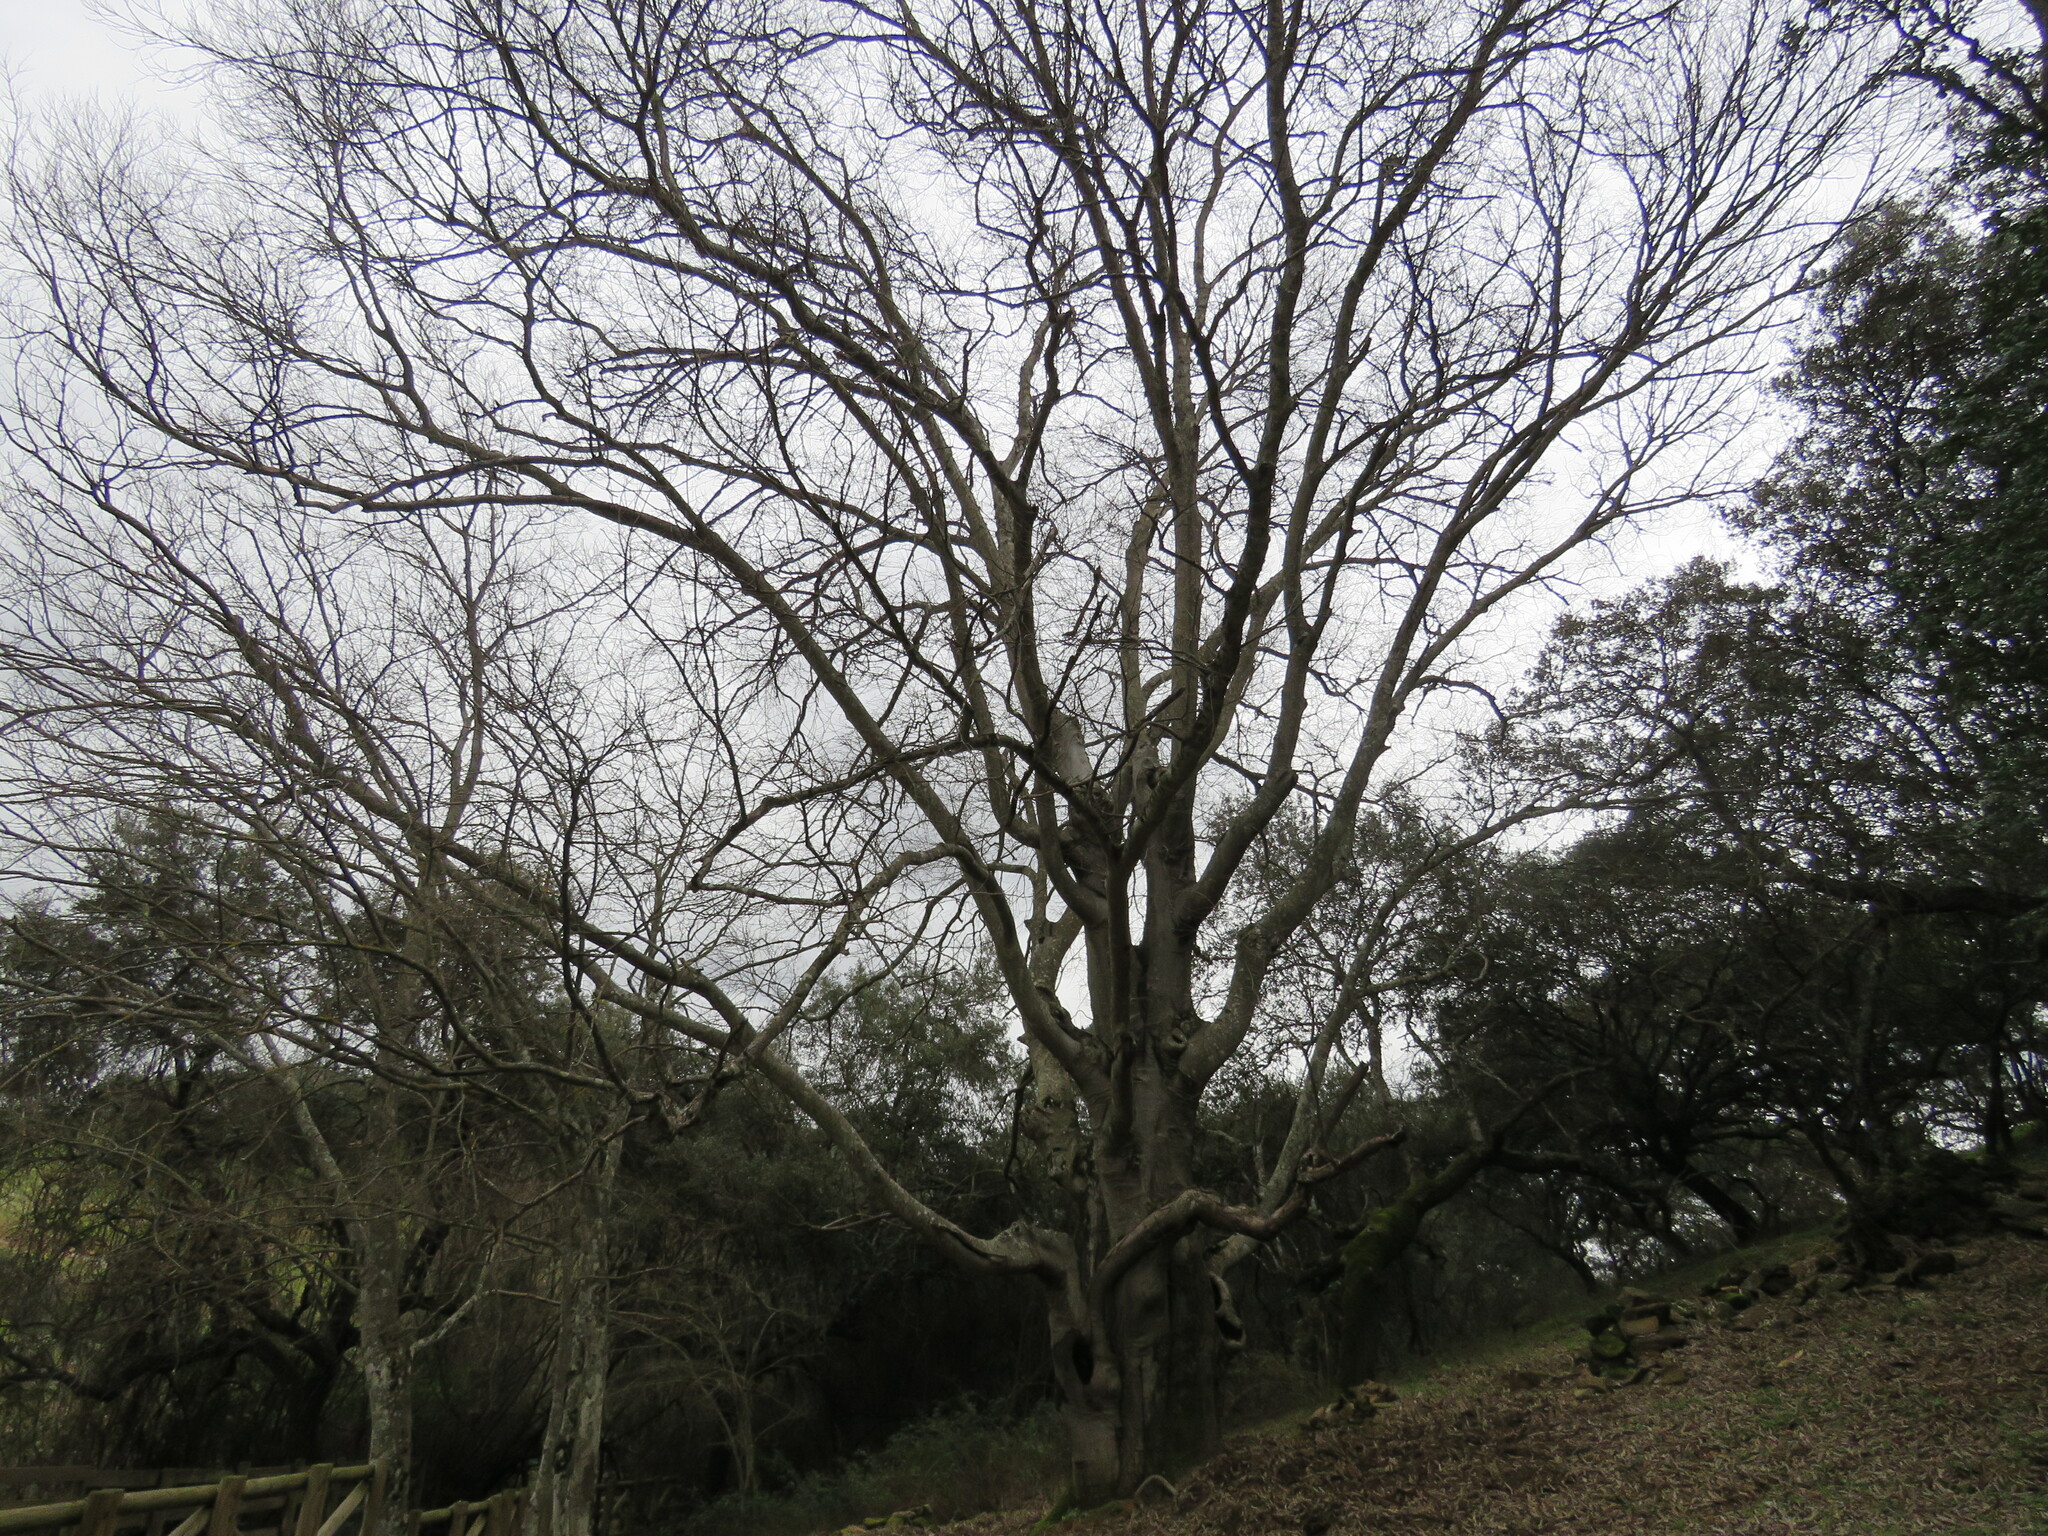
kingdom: Plantae
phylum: Tracheophyta
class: Magnoliopsida
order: Rosales
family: Cannabaceae
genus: Celtis
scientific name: Celtis australis
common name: European hackberry
